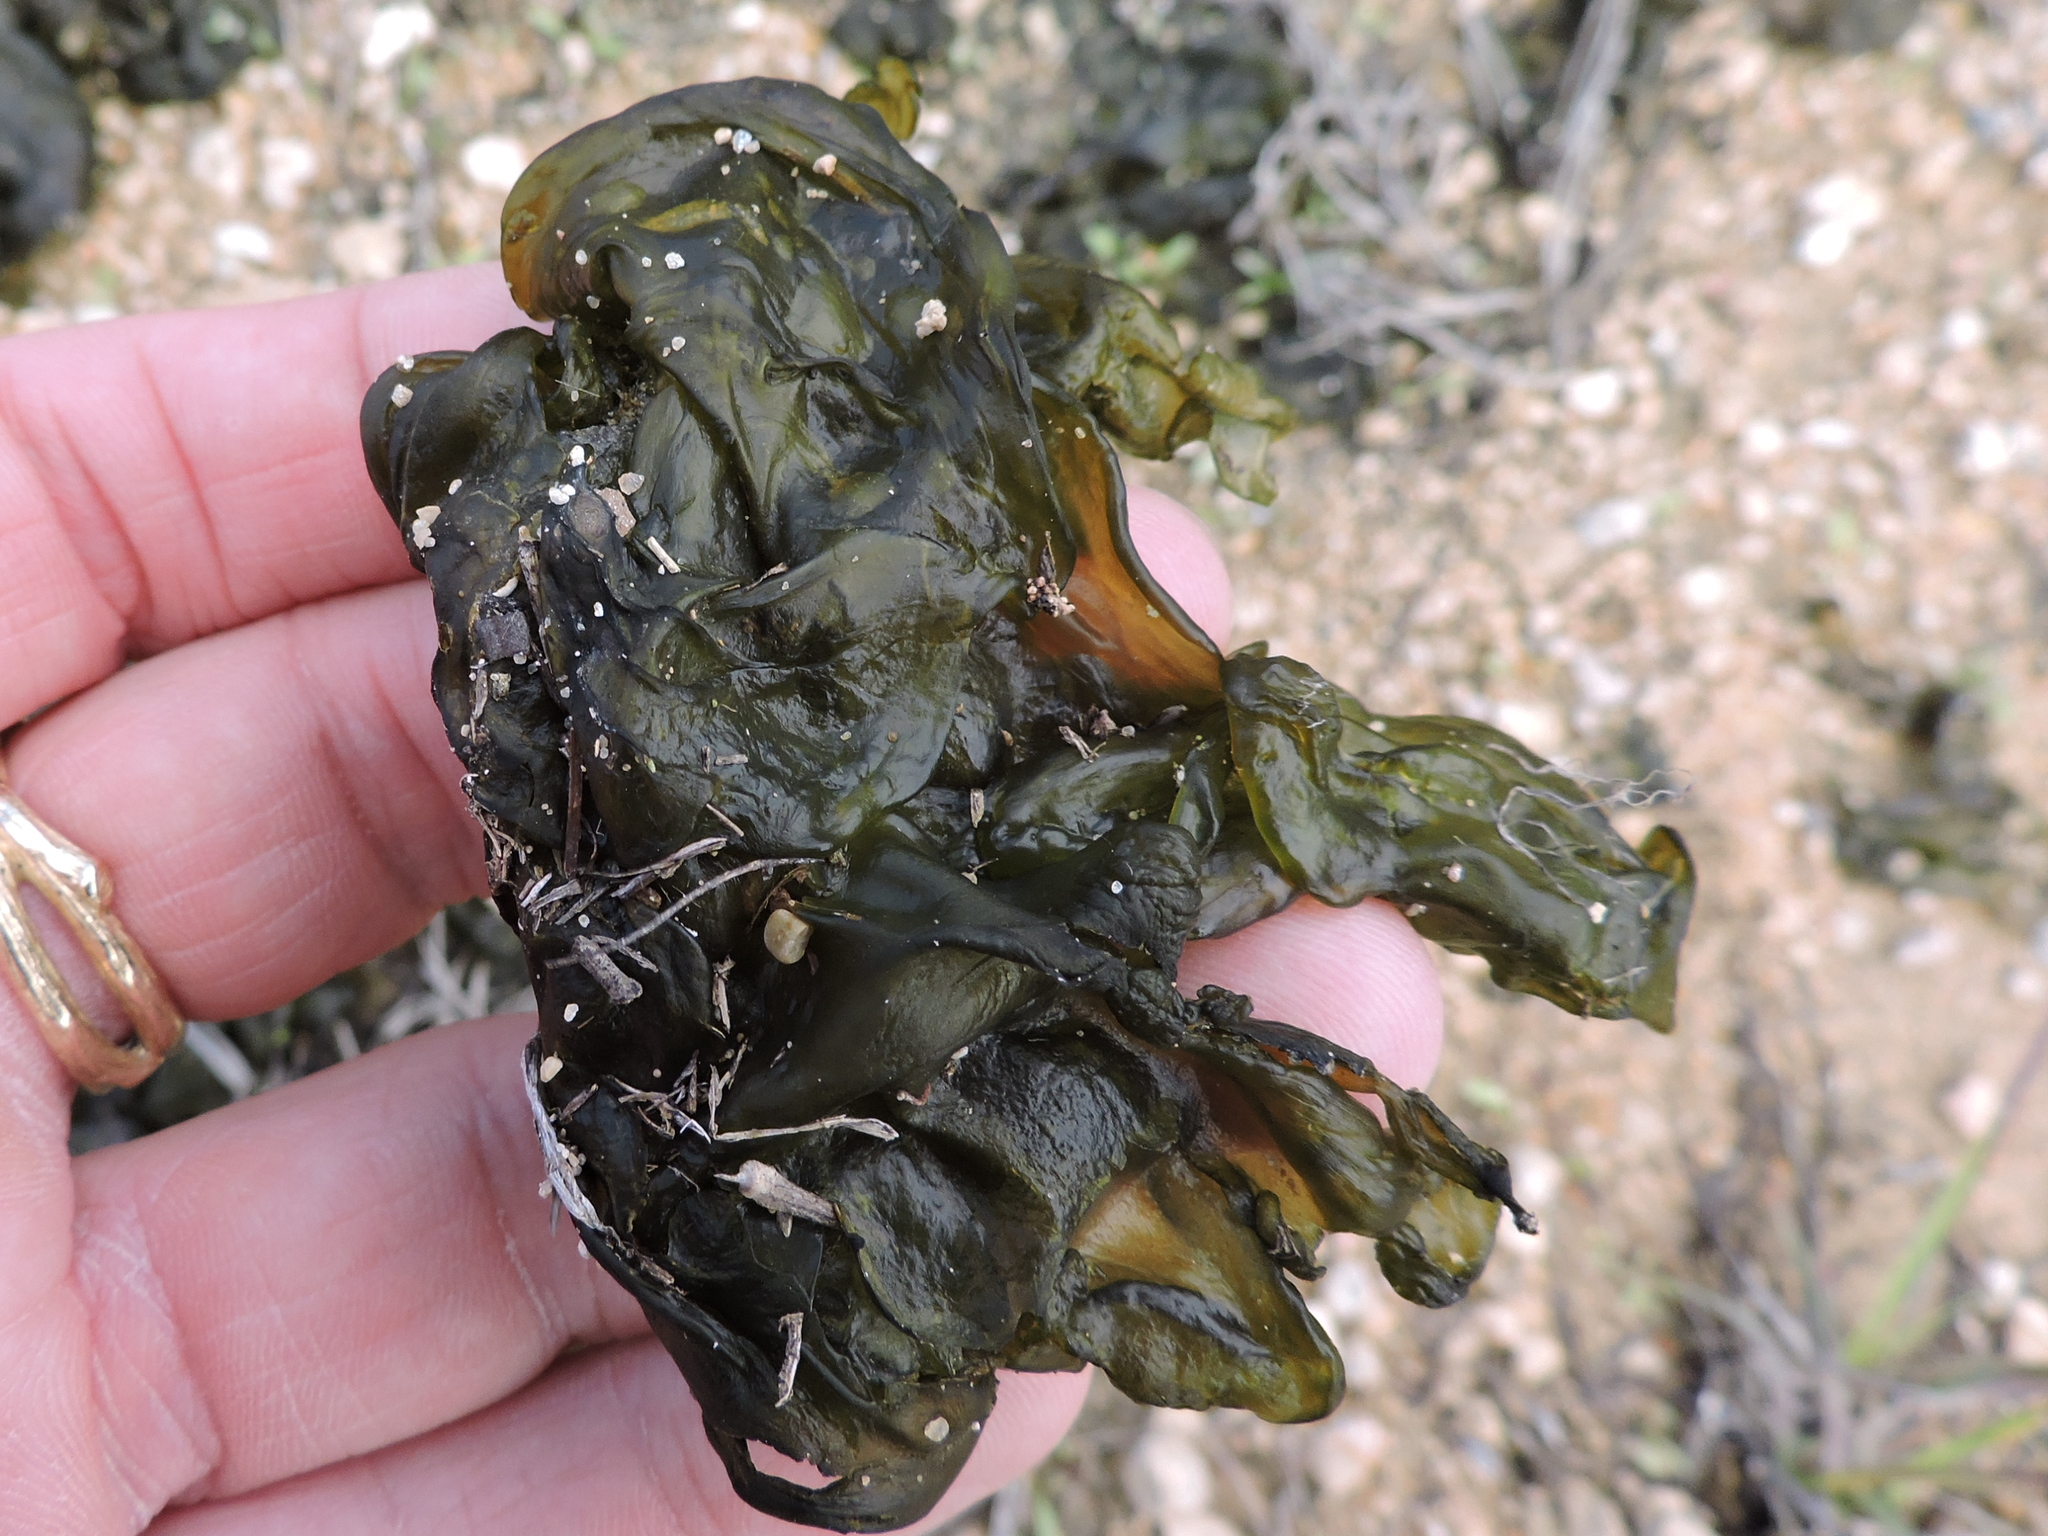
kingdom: Bacteria
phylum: Cyanobacteria
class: Cyanobacteriia
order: Cyanobacteriales
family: Nostocaceae
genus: Nostoc
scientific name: Nostoc commune
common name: Star jelly
